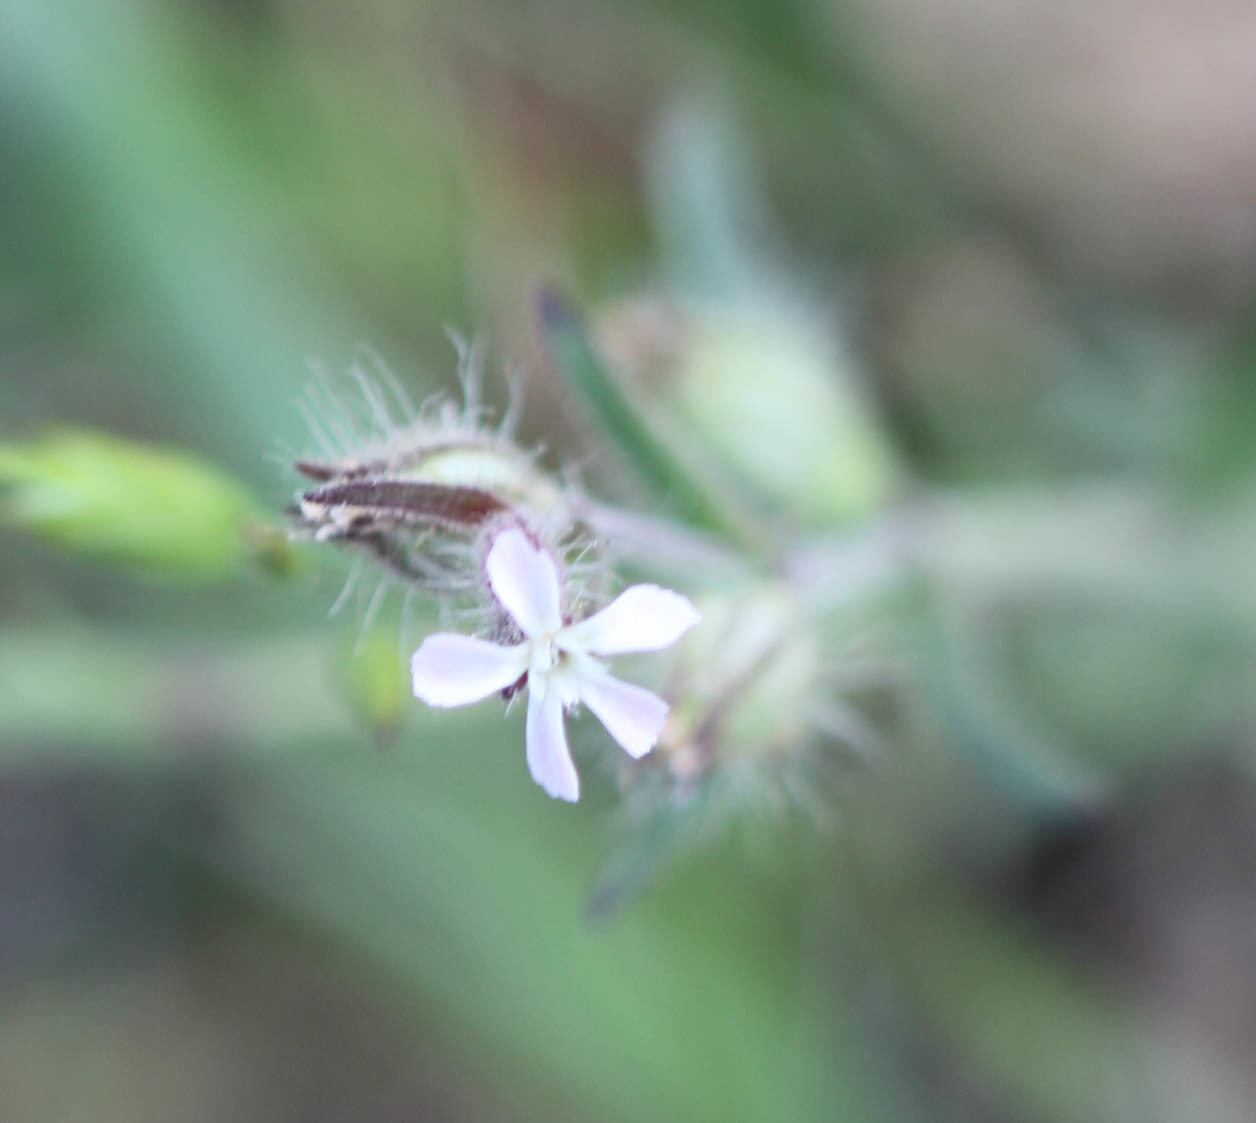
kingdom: Plantae
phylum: Tracheophyta
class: Magnoliopsida
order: Caryophyllales
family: Caryophyllaceae
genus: Silene
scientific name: Silene gallica
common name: Small-flowered catchfly
